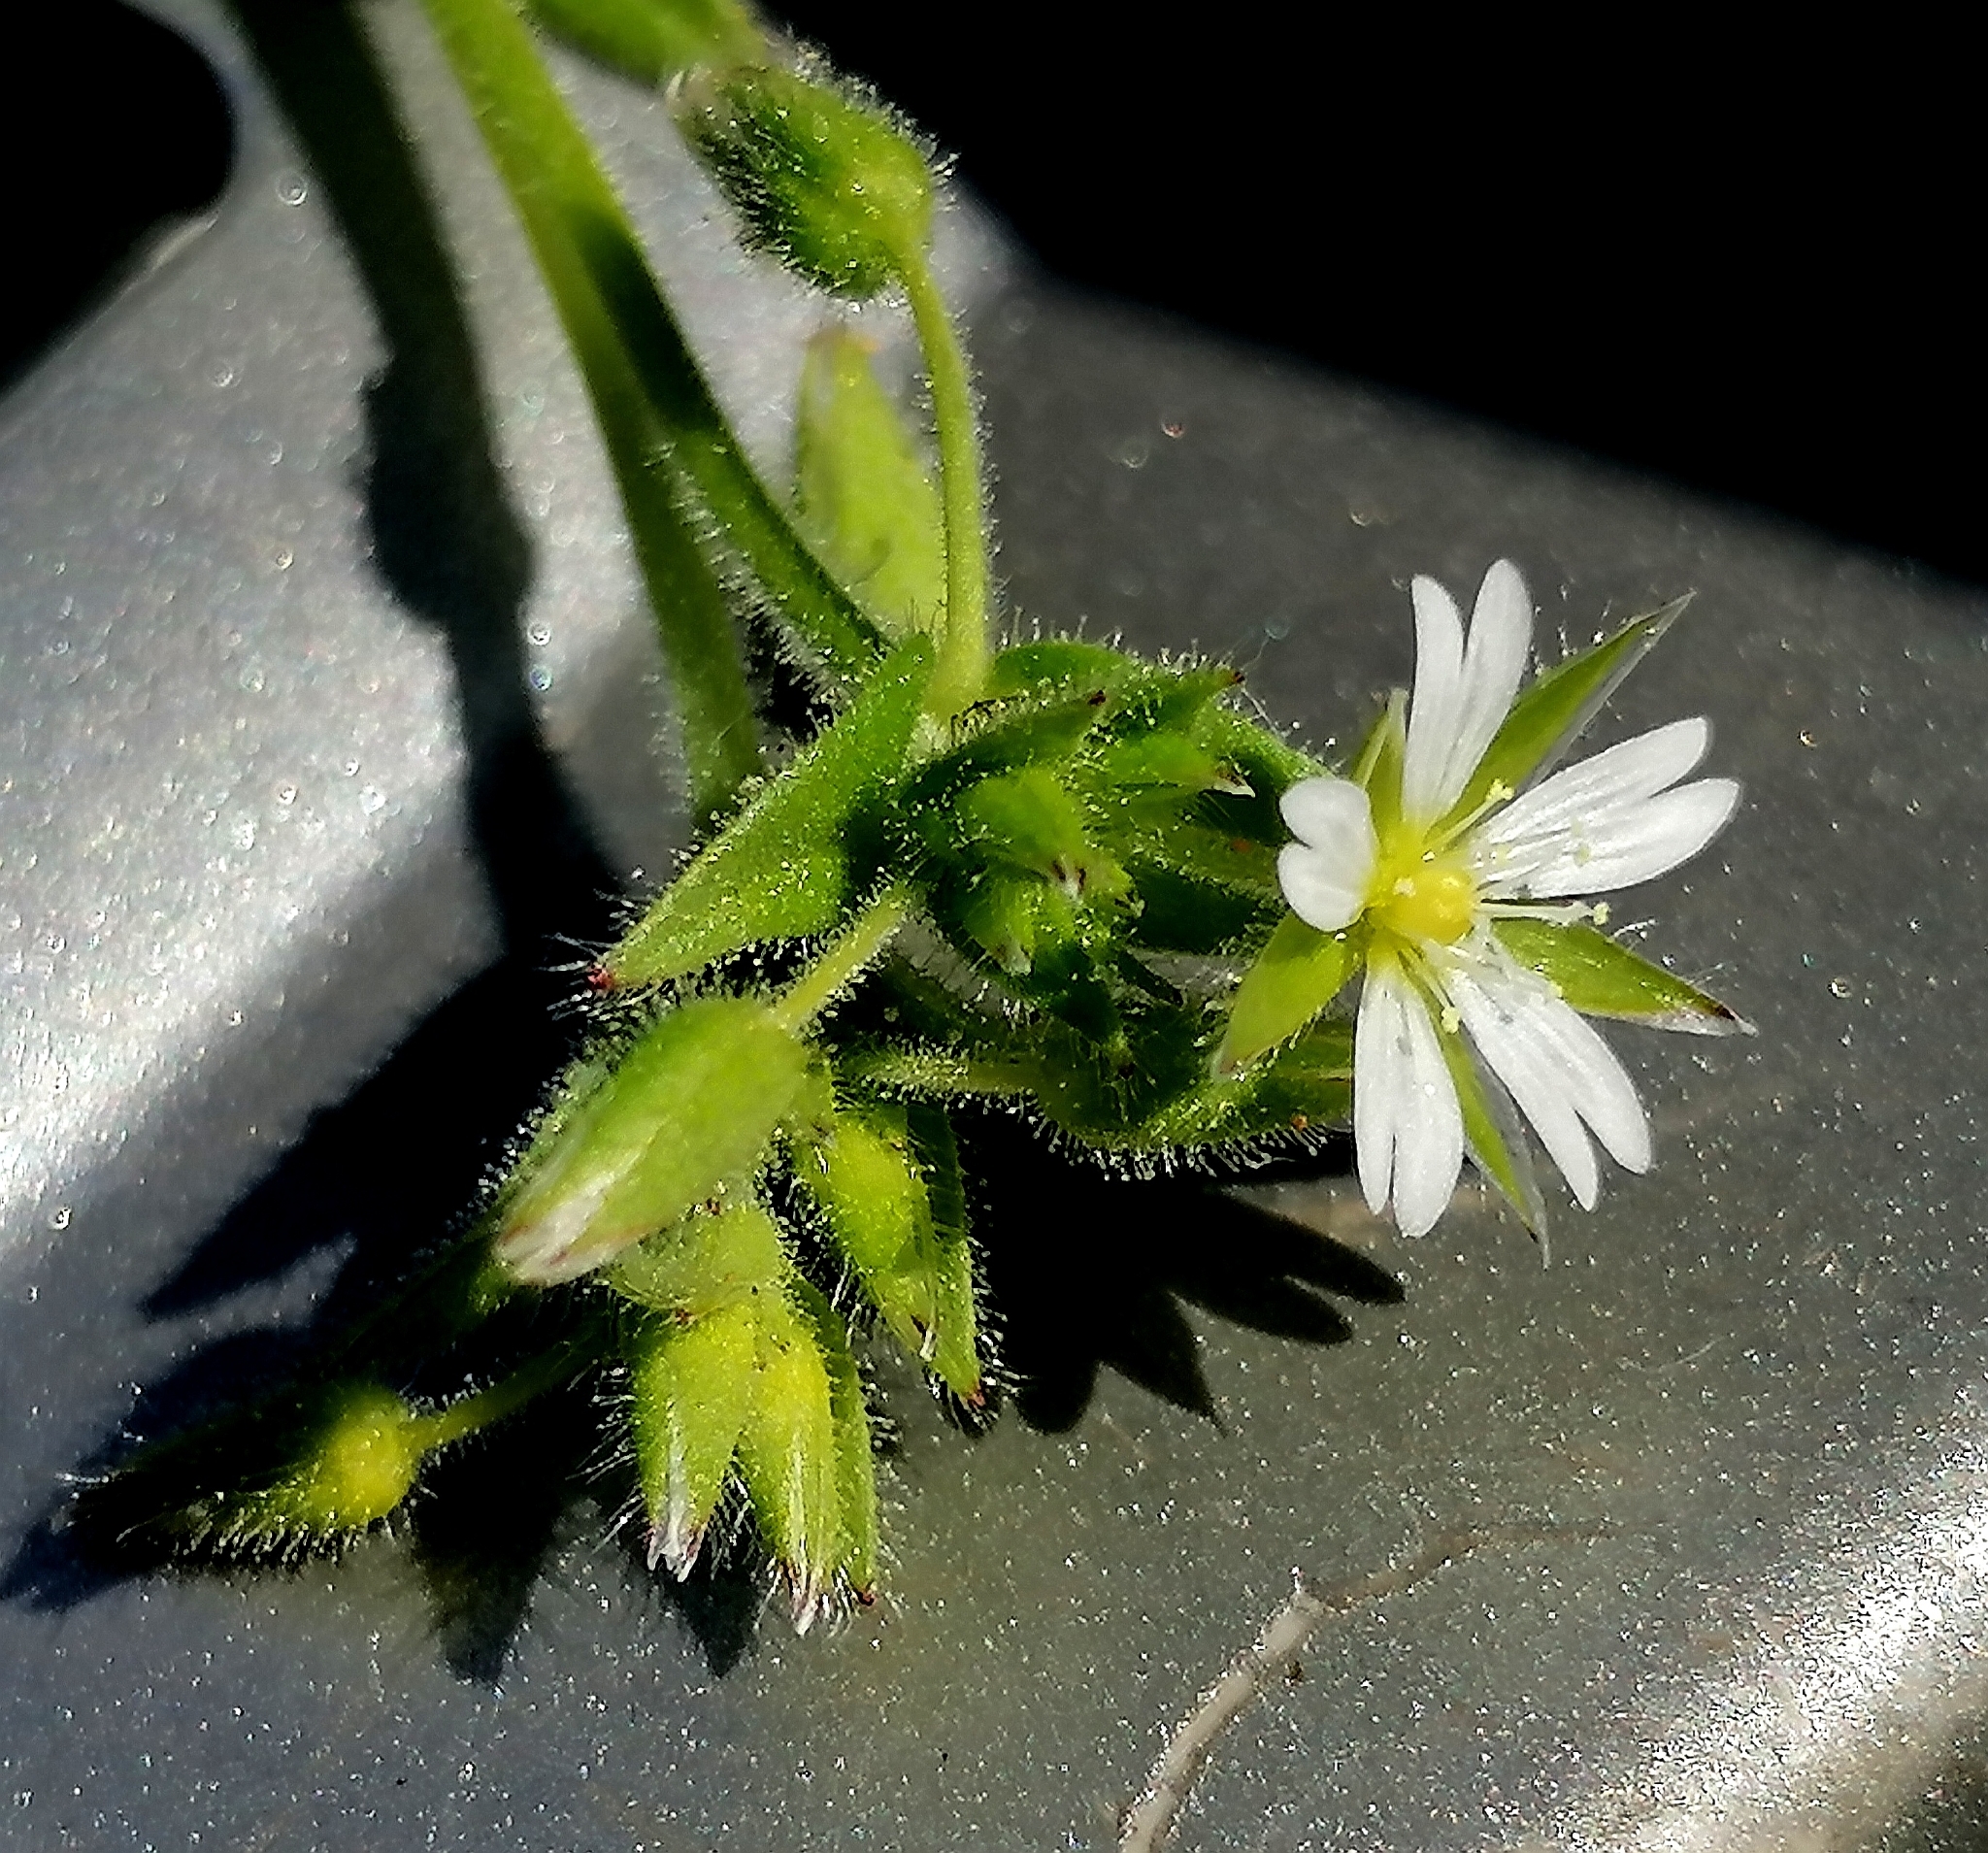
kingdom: Plantae
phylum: Tracheophyta
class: Magnoliopsida
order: Caryophyllales
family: Caryophyllaceae
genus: Cerastium
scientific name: Cerastium glomeratum
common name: Sticky chickweed
